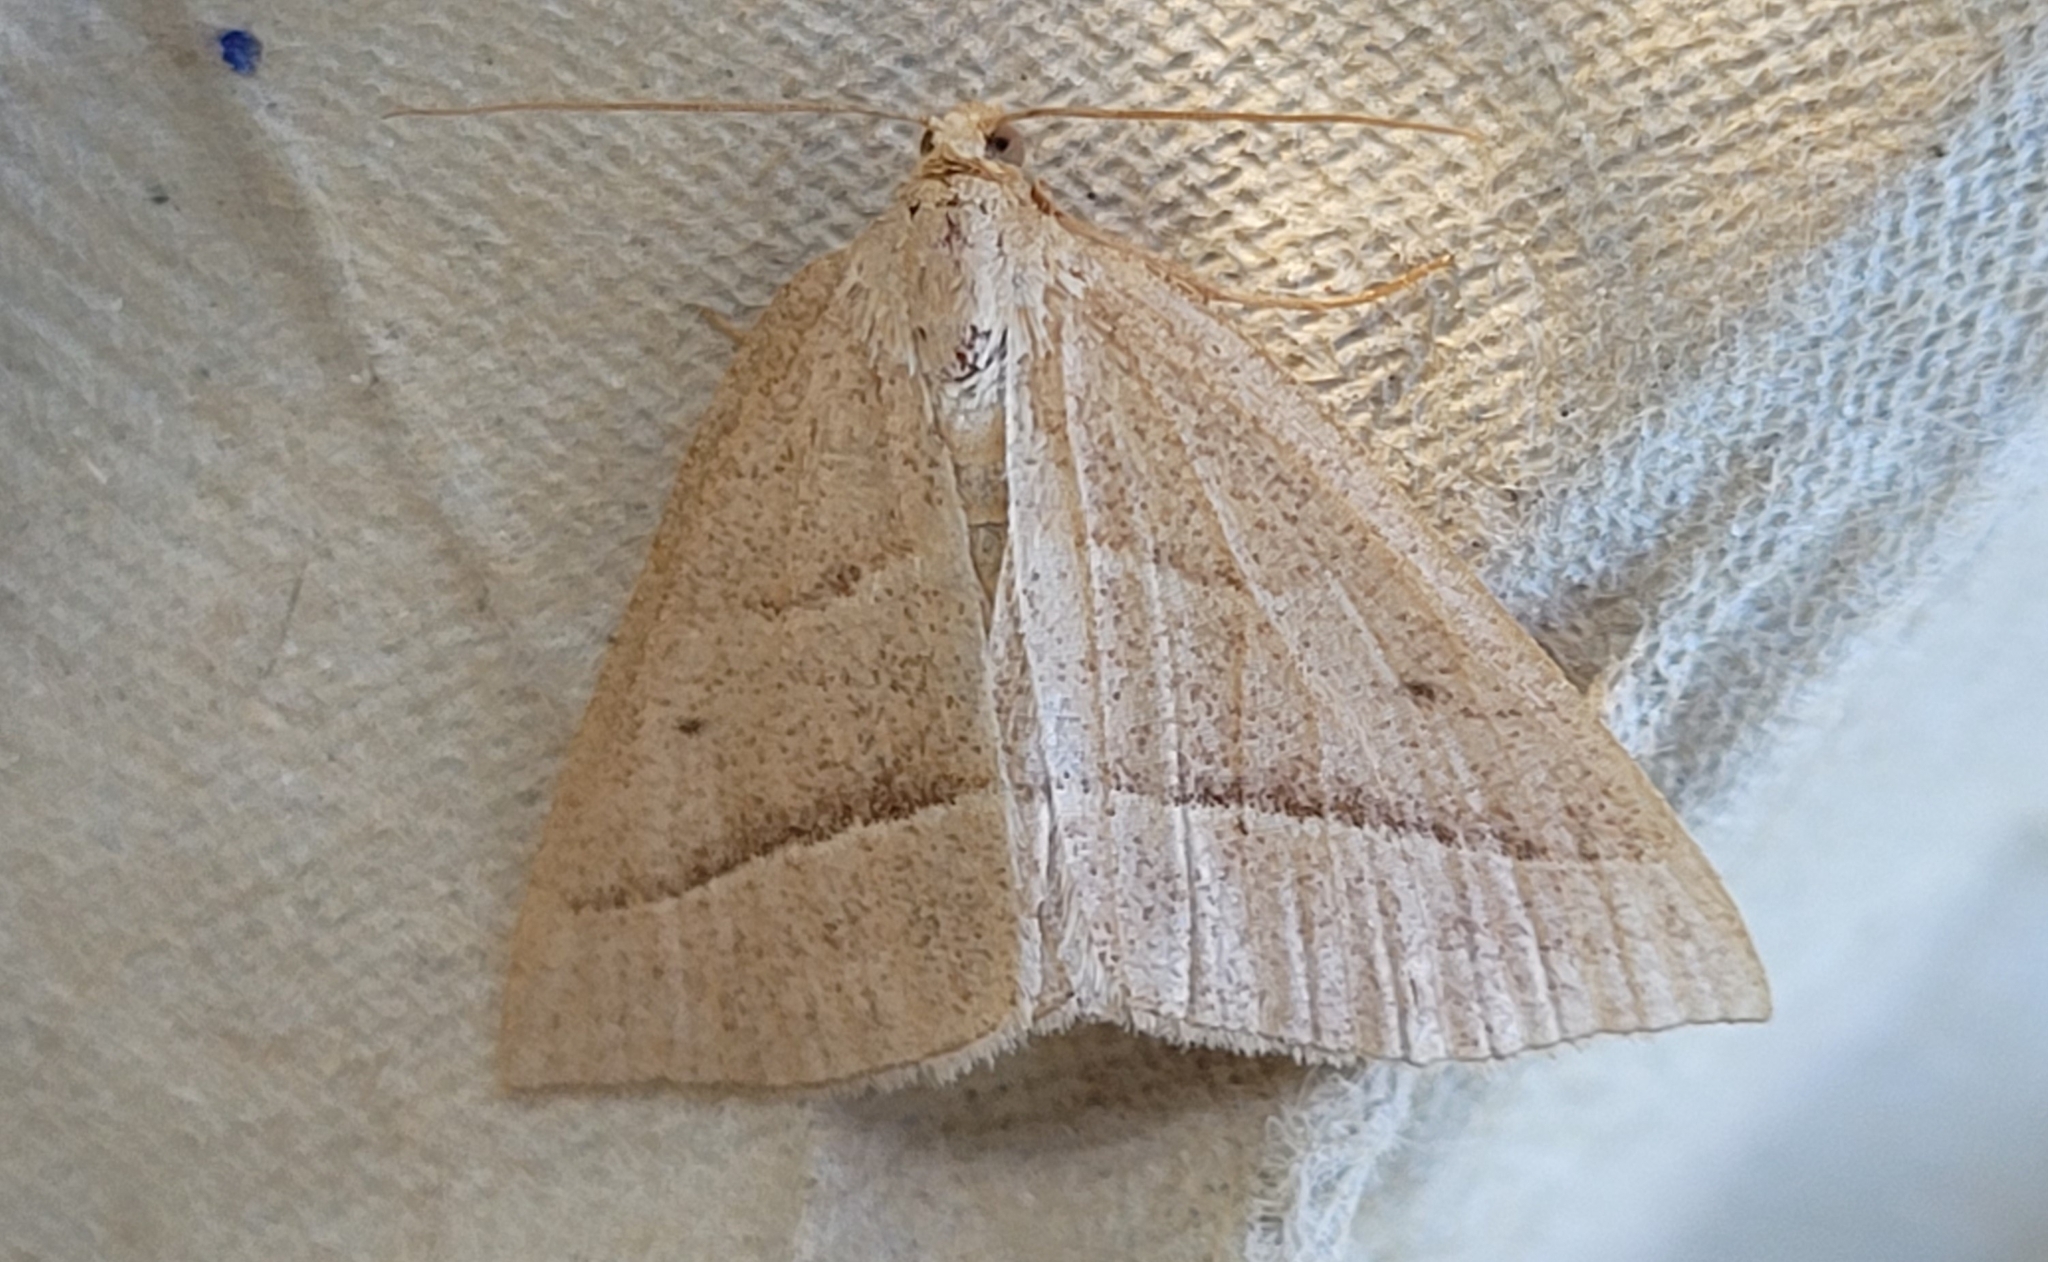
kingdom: Animalia
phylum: Arthropoda
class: Insecta
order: Lepidoptera
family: Pterophoridae
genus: Pterophorus
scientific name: Pterophorus Petrophora chlorosata
